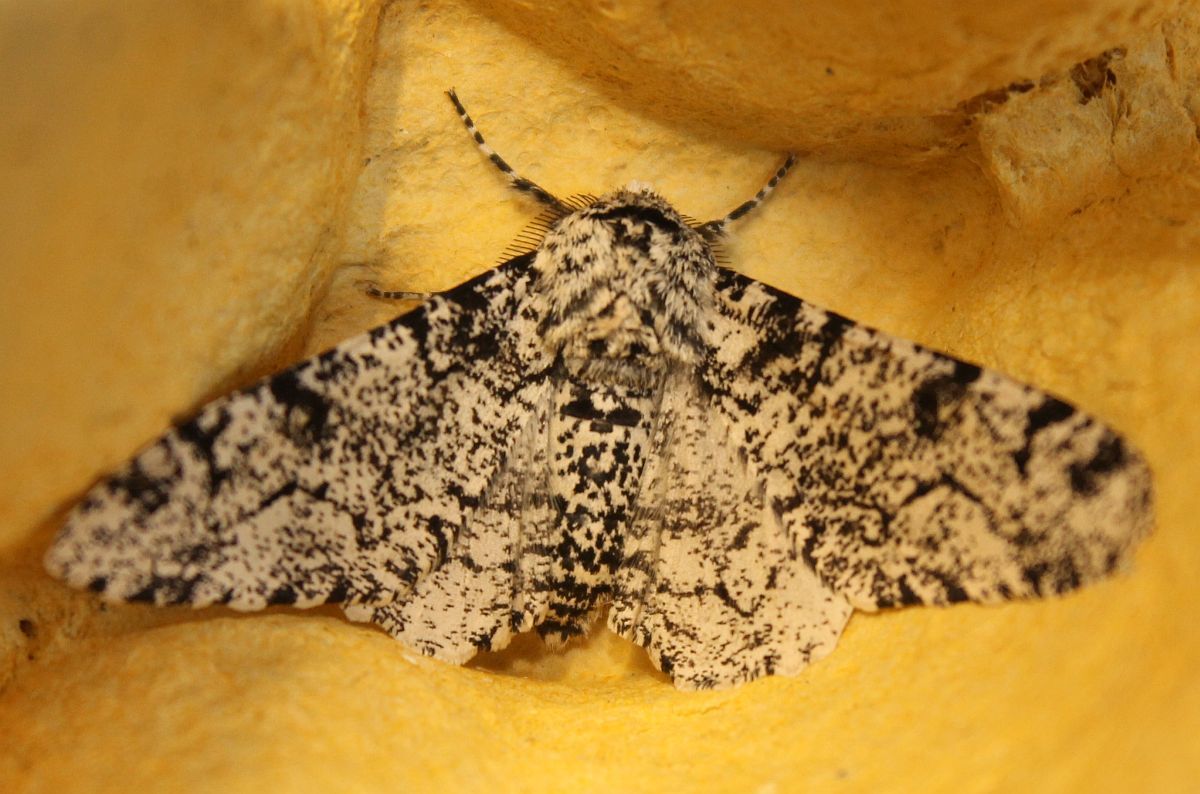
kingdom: Animalia
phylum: Arthropoda
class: Insecta
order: Lepidoptera
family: Geometridae
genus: Biston
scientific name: Biston betularia
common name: Peppered moth
